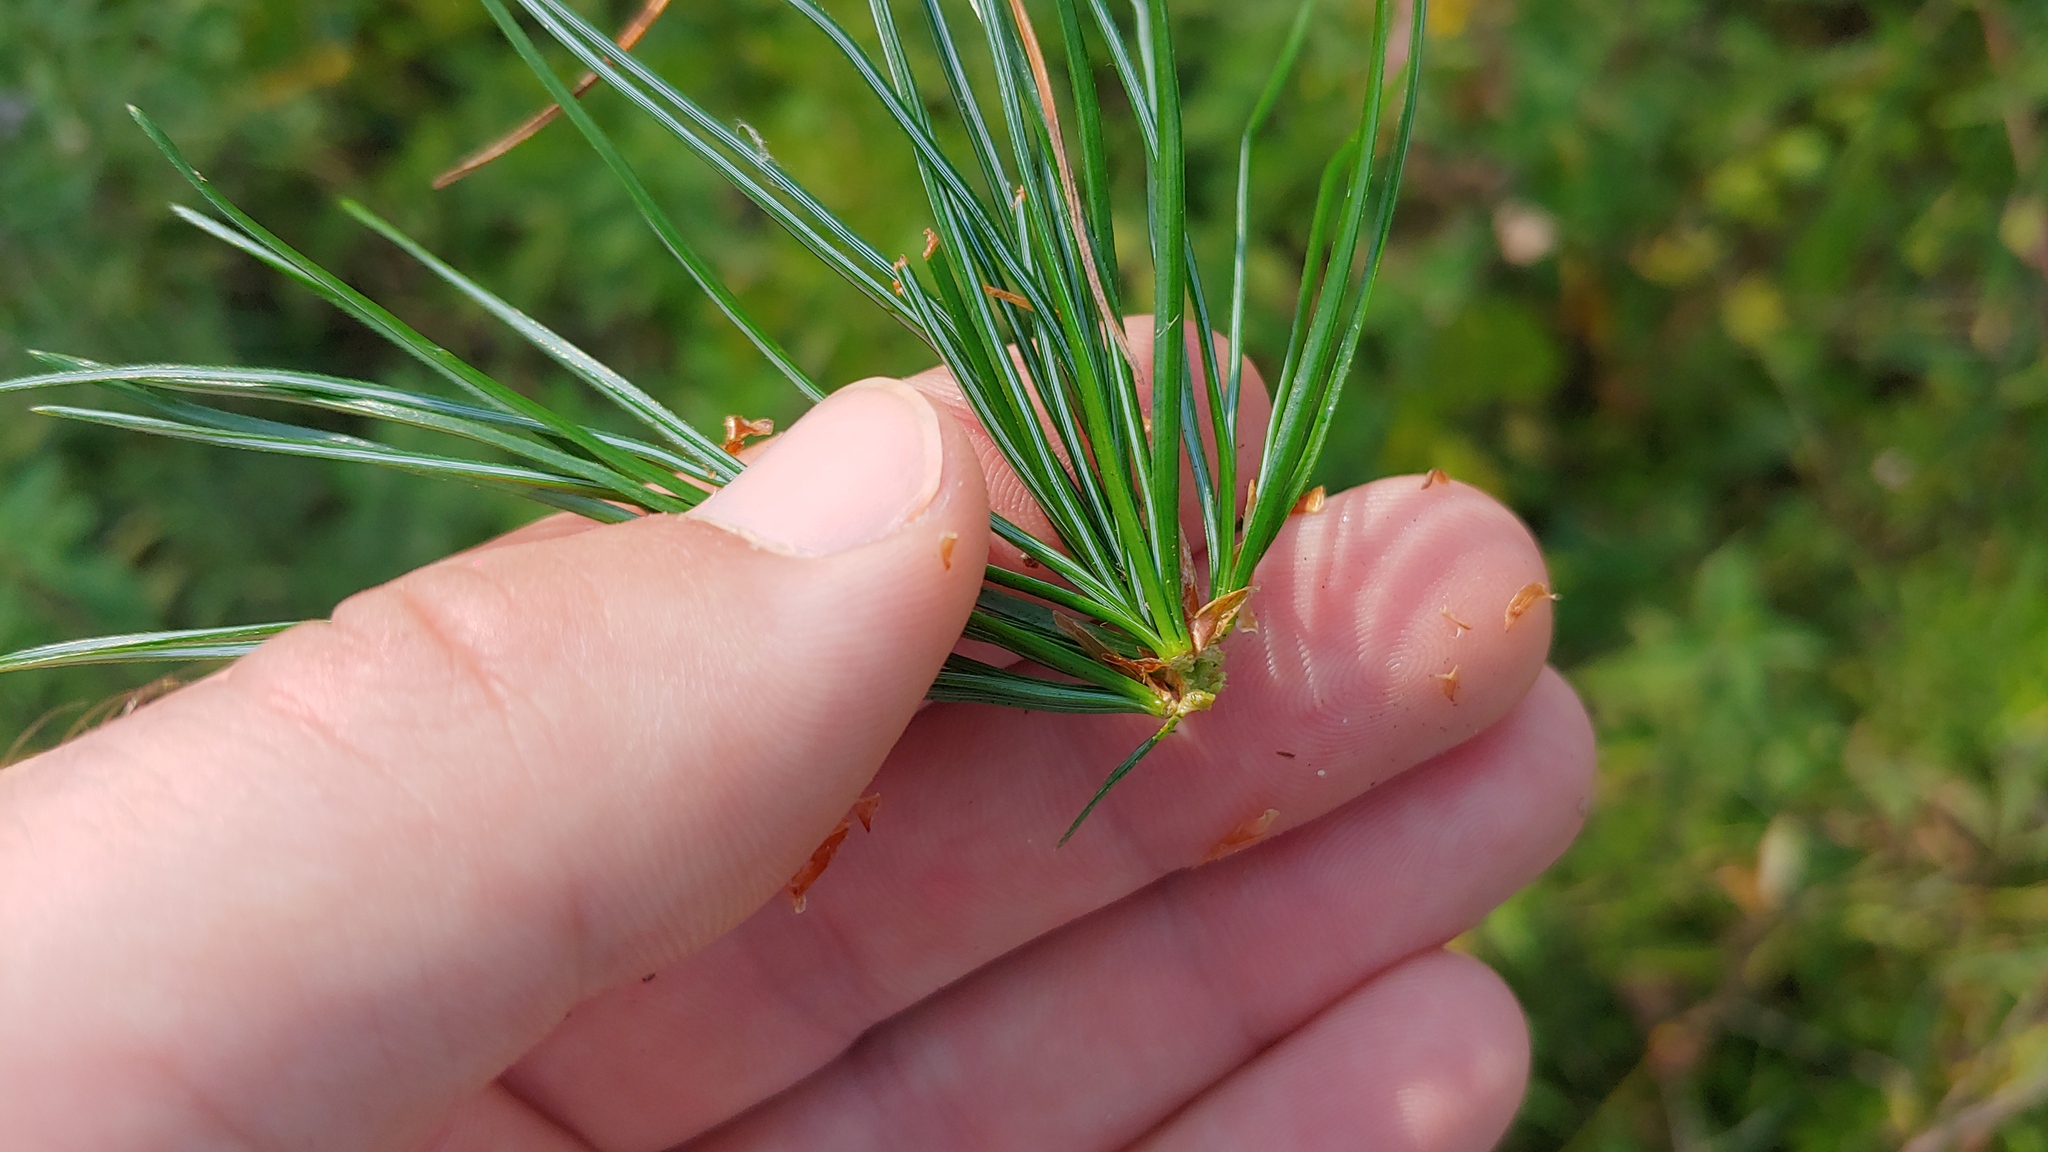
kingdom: Plantae
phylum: Tracheophyta
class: Pinopsida
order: Pinales
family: Pinaceae
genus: Pinus
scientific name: Pinus strobus
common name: Weymouth pine
